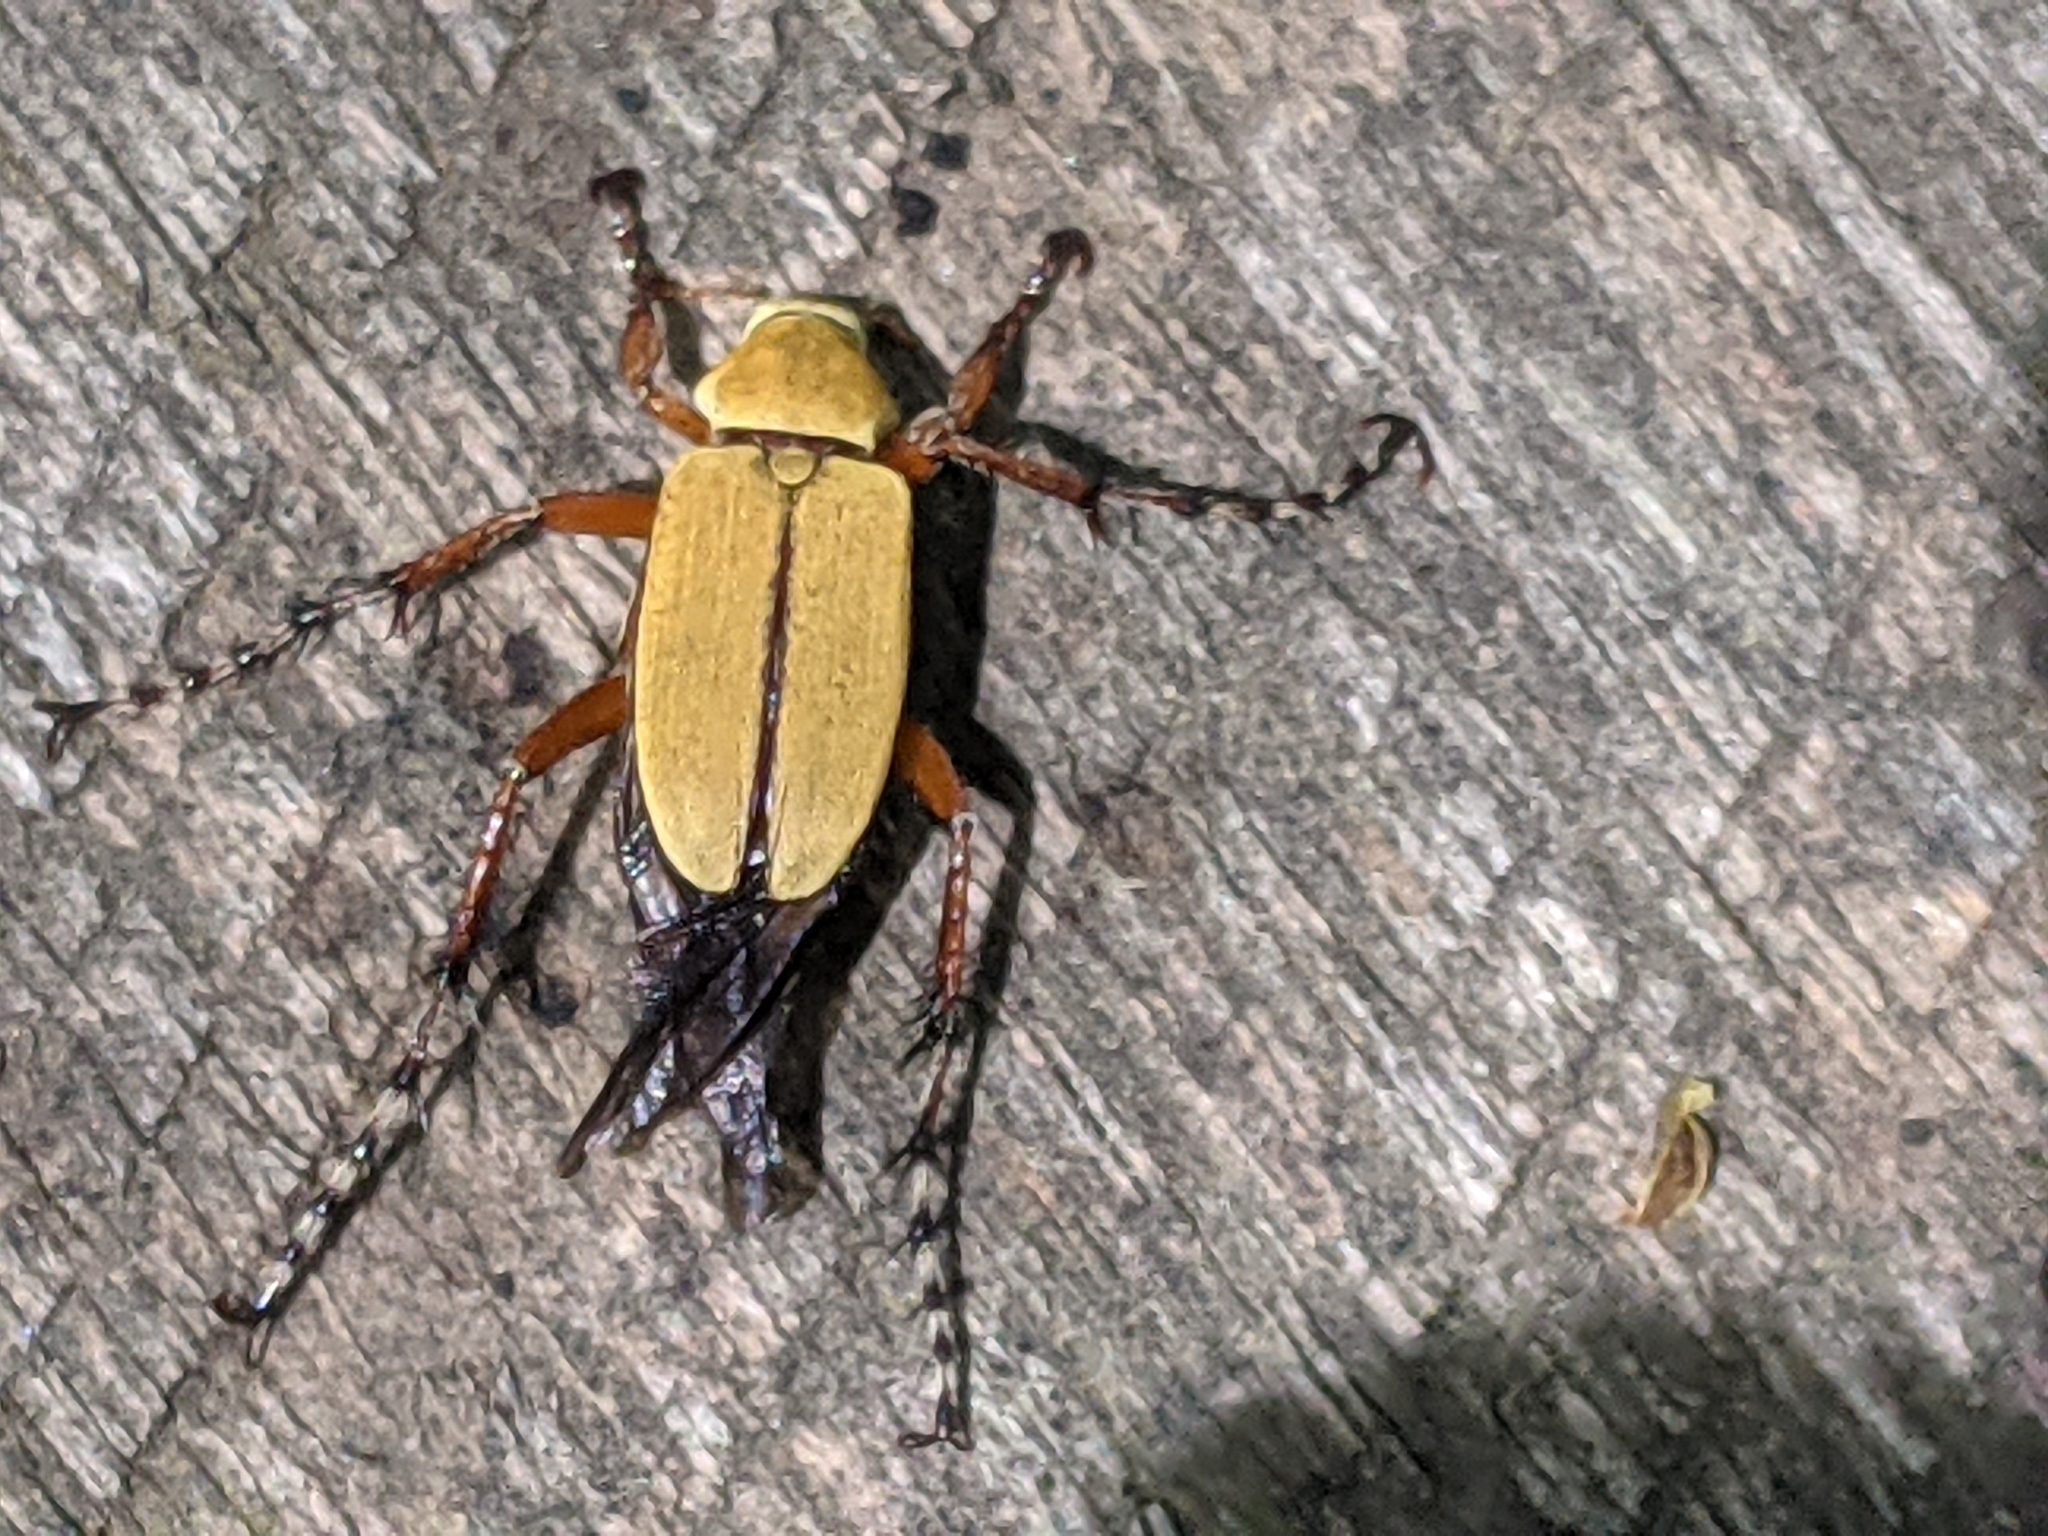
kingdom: Animalia
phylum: Arthropoda
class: Insecta
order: Coleoptera
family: Scarabaeidae
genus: Macrodactylus
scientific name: Macrodactylus subspinosus
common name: American rose chafer
